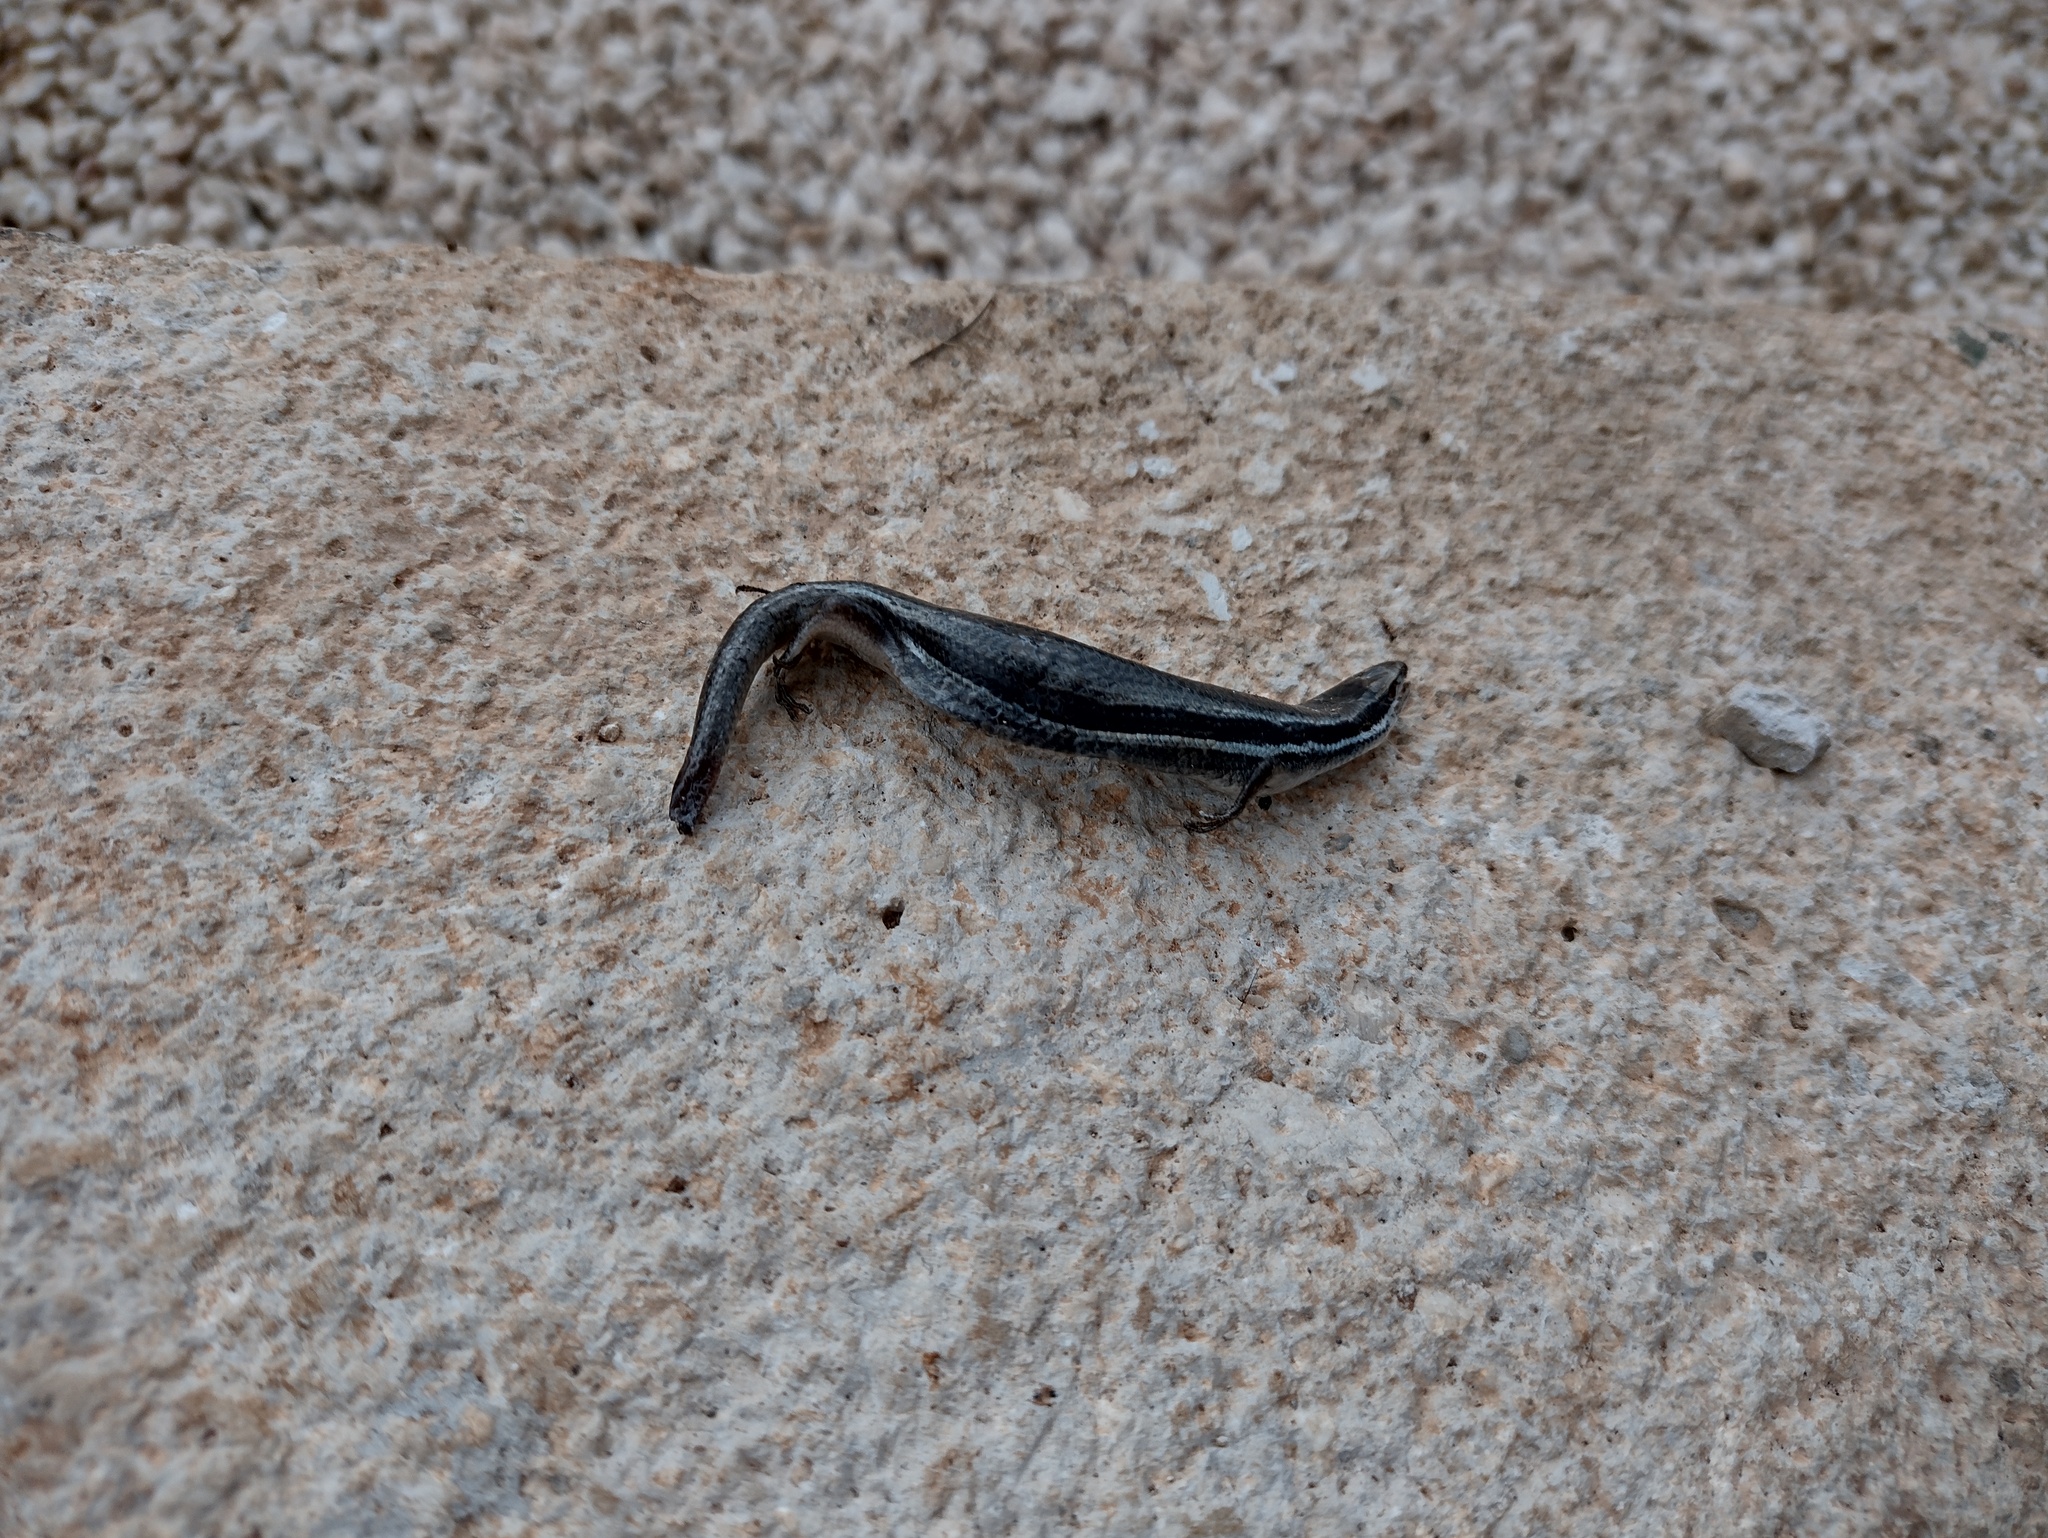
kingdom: Animalia
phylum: Chordata
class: Squamata
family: Scincidae
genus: Marisora
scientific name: Marisora lineola
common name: Mayan skink
